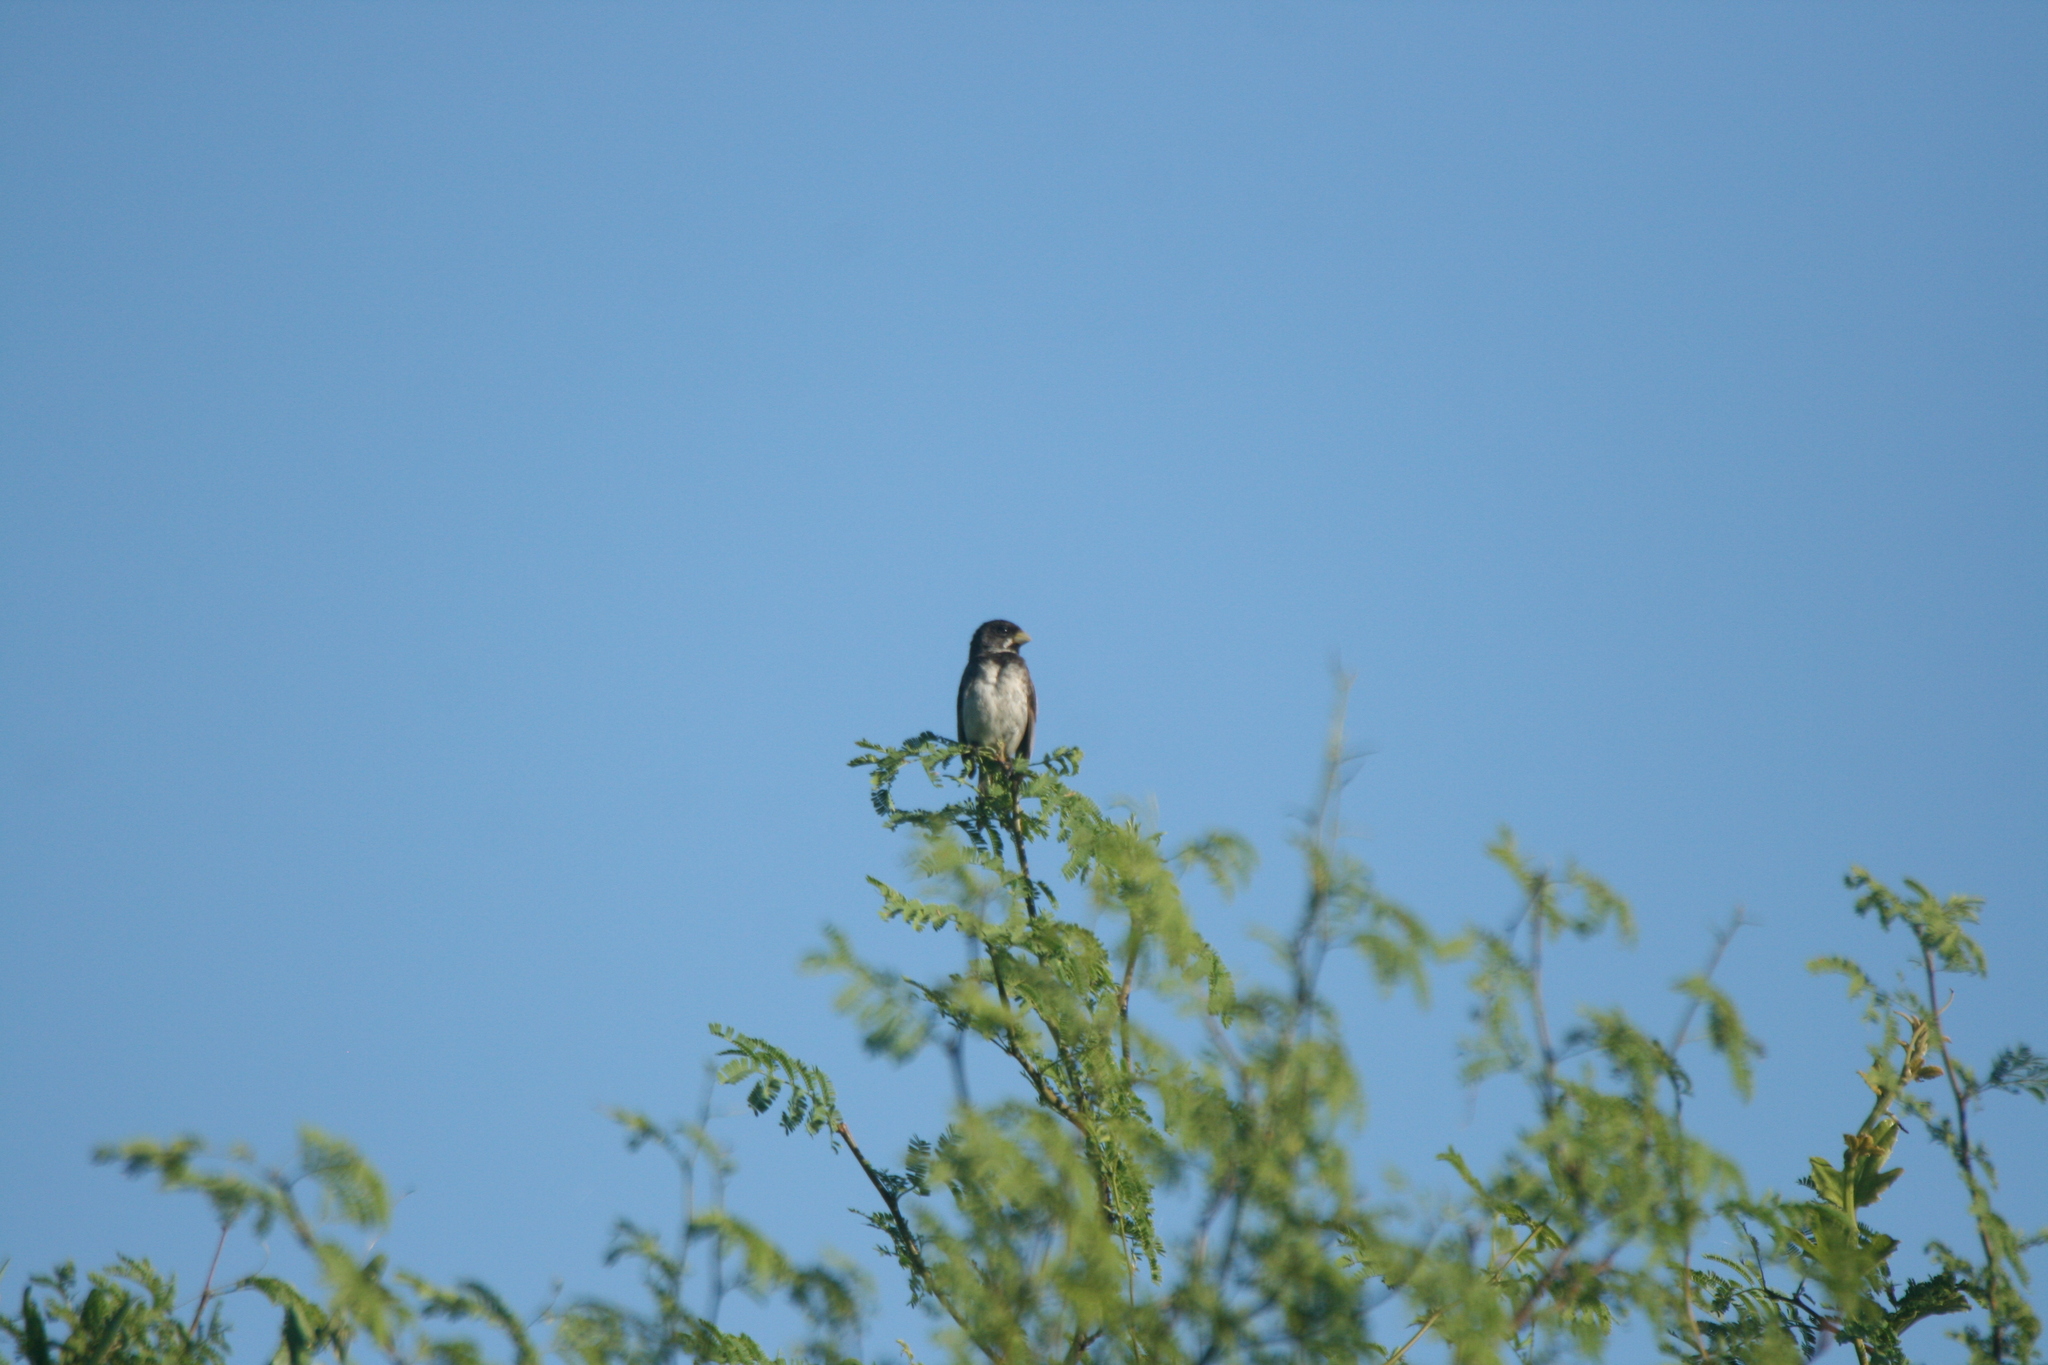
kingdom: Animalia
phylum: Chordata
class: Aves
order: Passeriformes
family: Thraupidae
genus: Sporophila
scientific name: Sporophila caerulescens
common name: Double-collared seedeater
